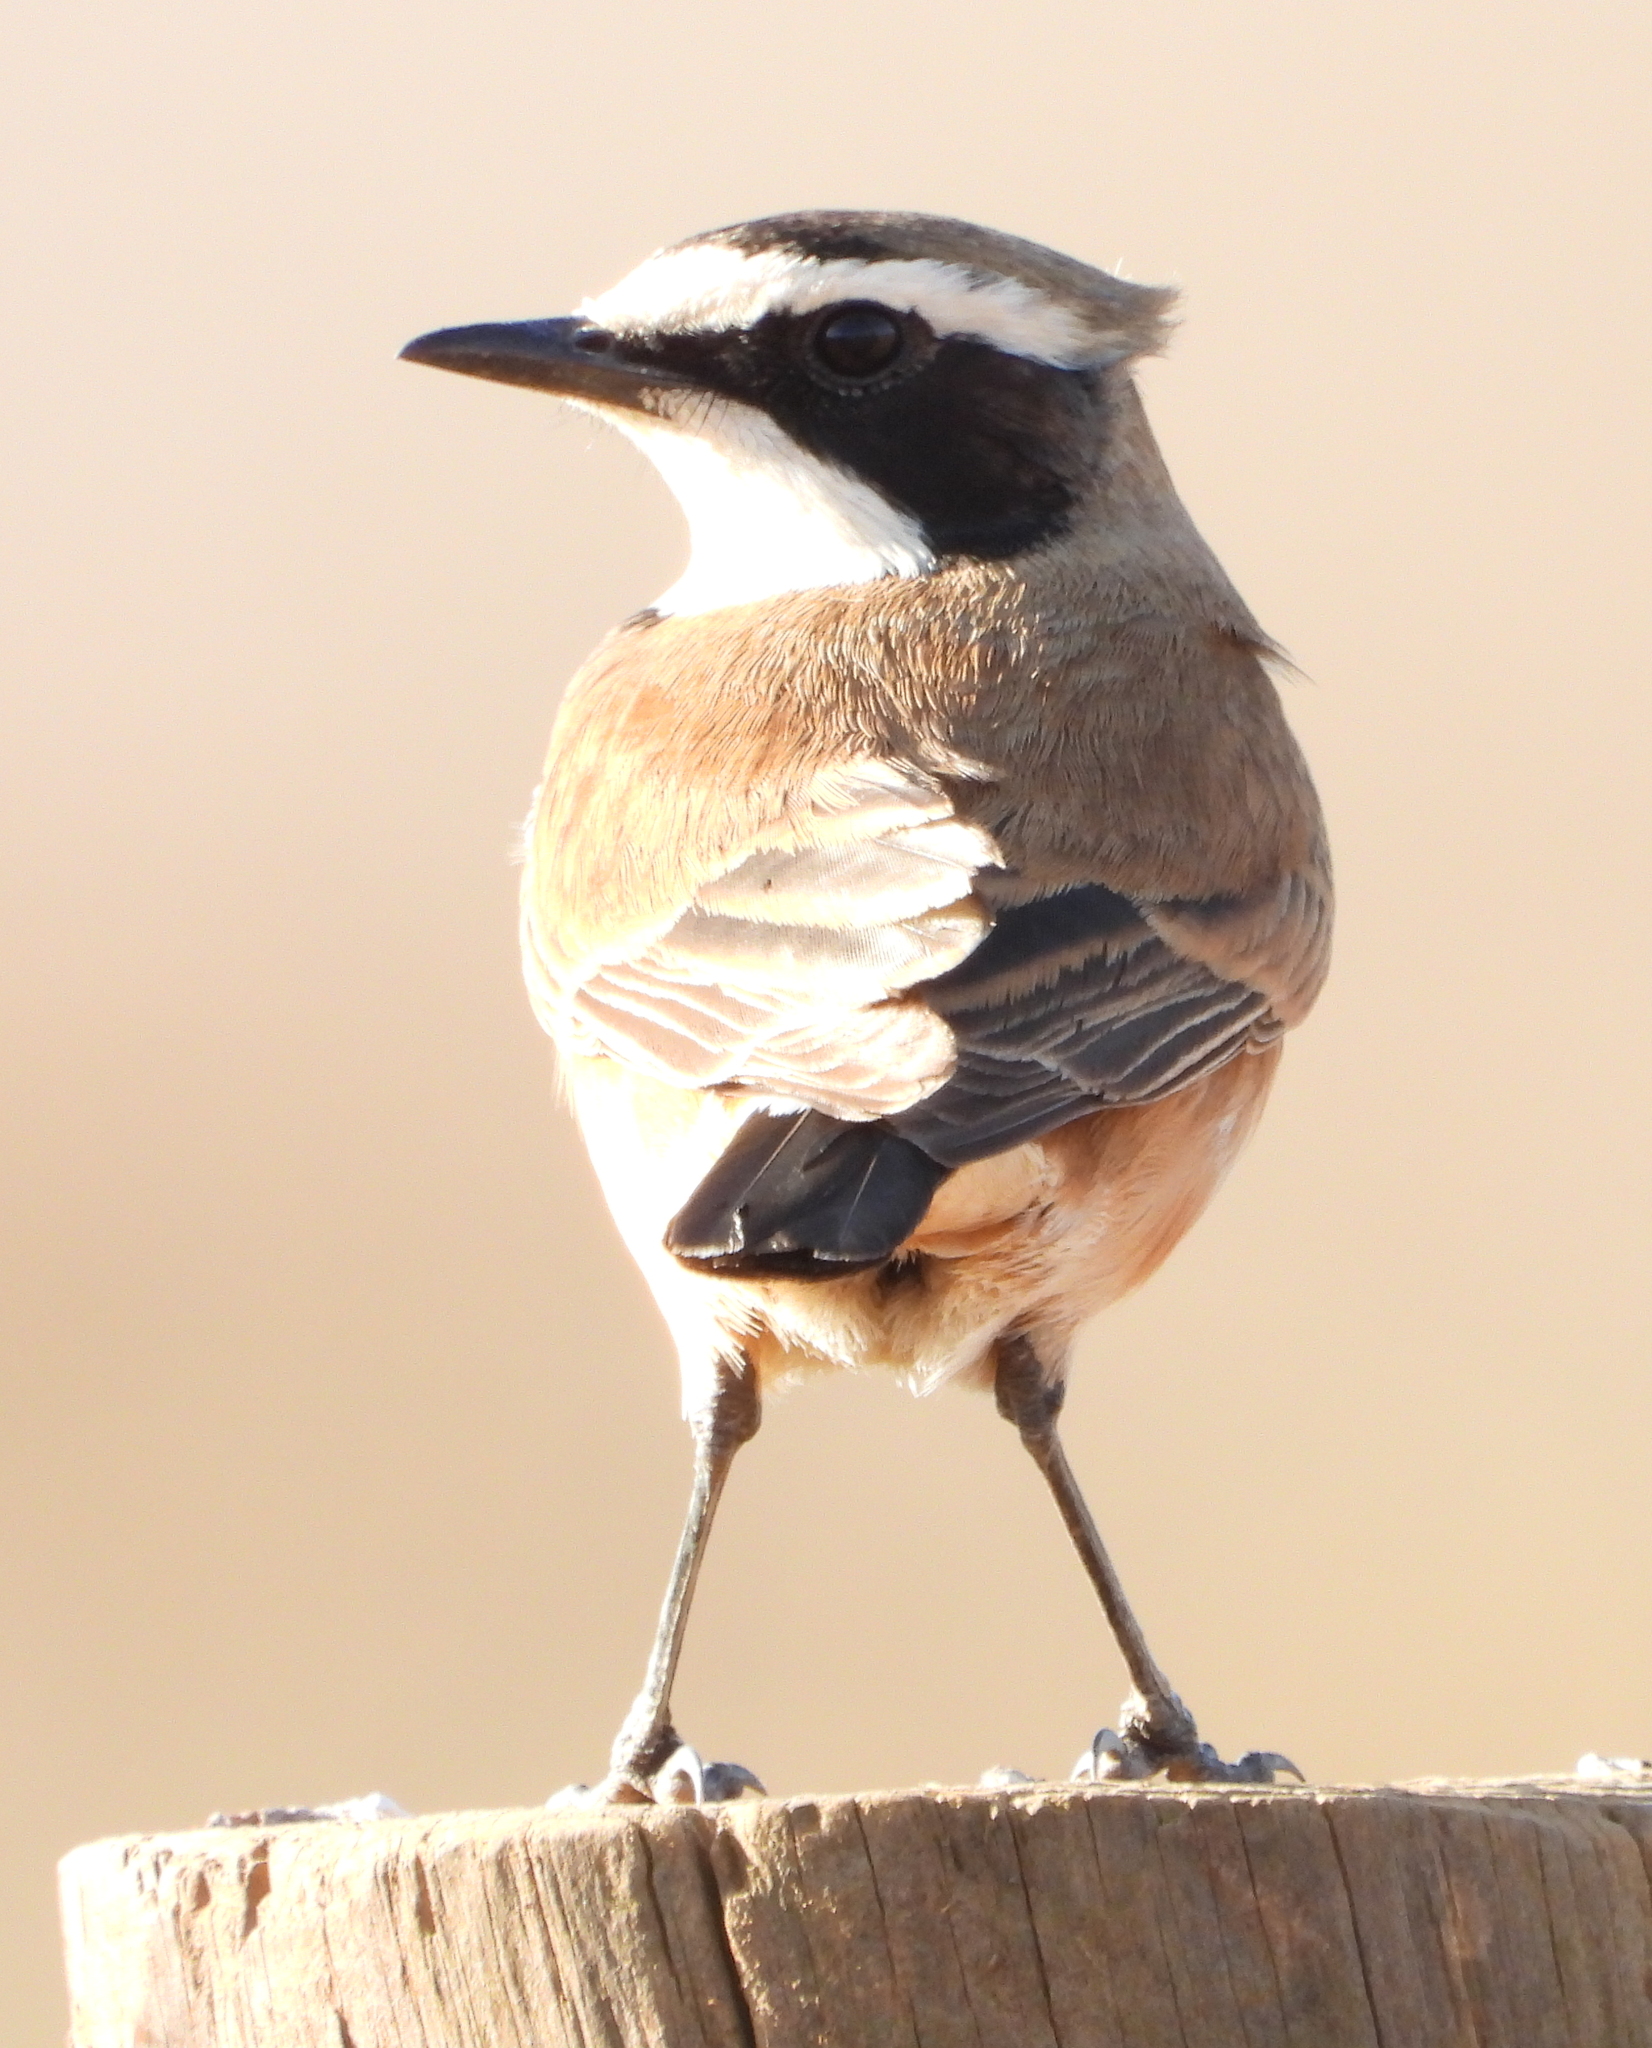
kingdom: Animalia
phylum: Chordata
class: Aves
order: Passeriformes
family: Muscicapidae
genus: Oenanthe
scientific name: Oenanthe pileata
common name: Capped wheatear
